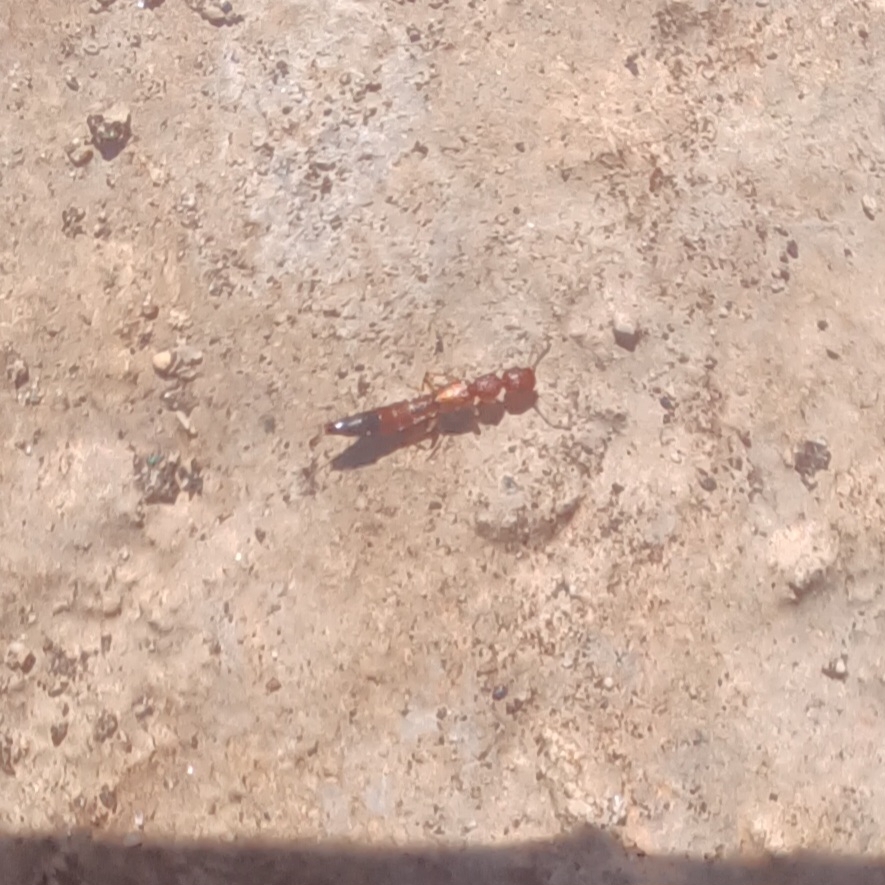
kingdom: Animalia
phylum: Arthropoda
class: Insecta
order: Coleoptera
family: Staphylinidae
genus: Astenus
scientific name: Astenus discopunctatus
